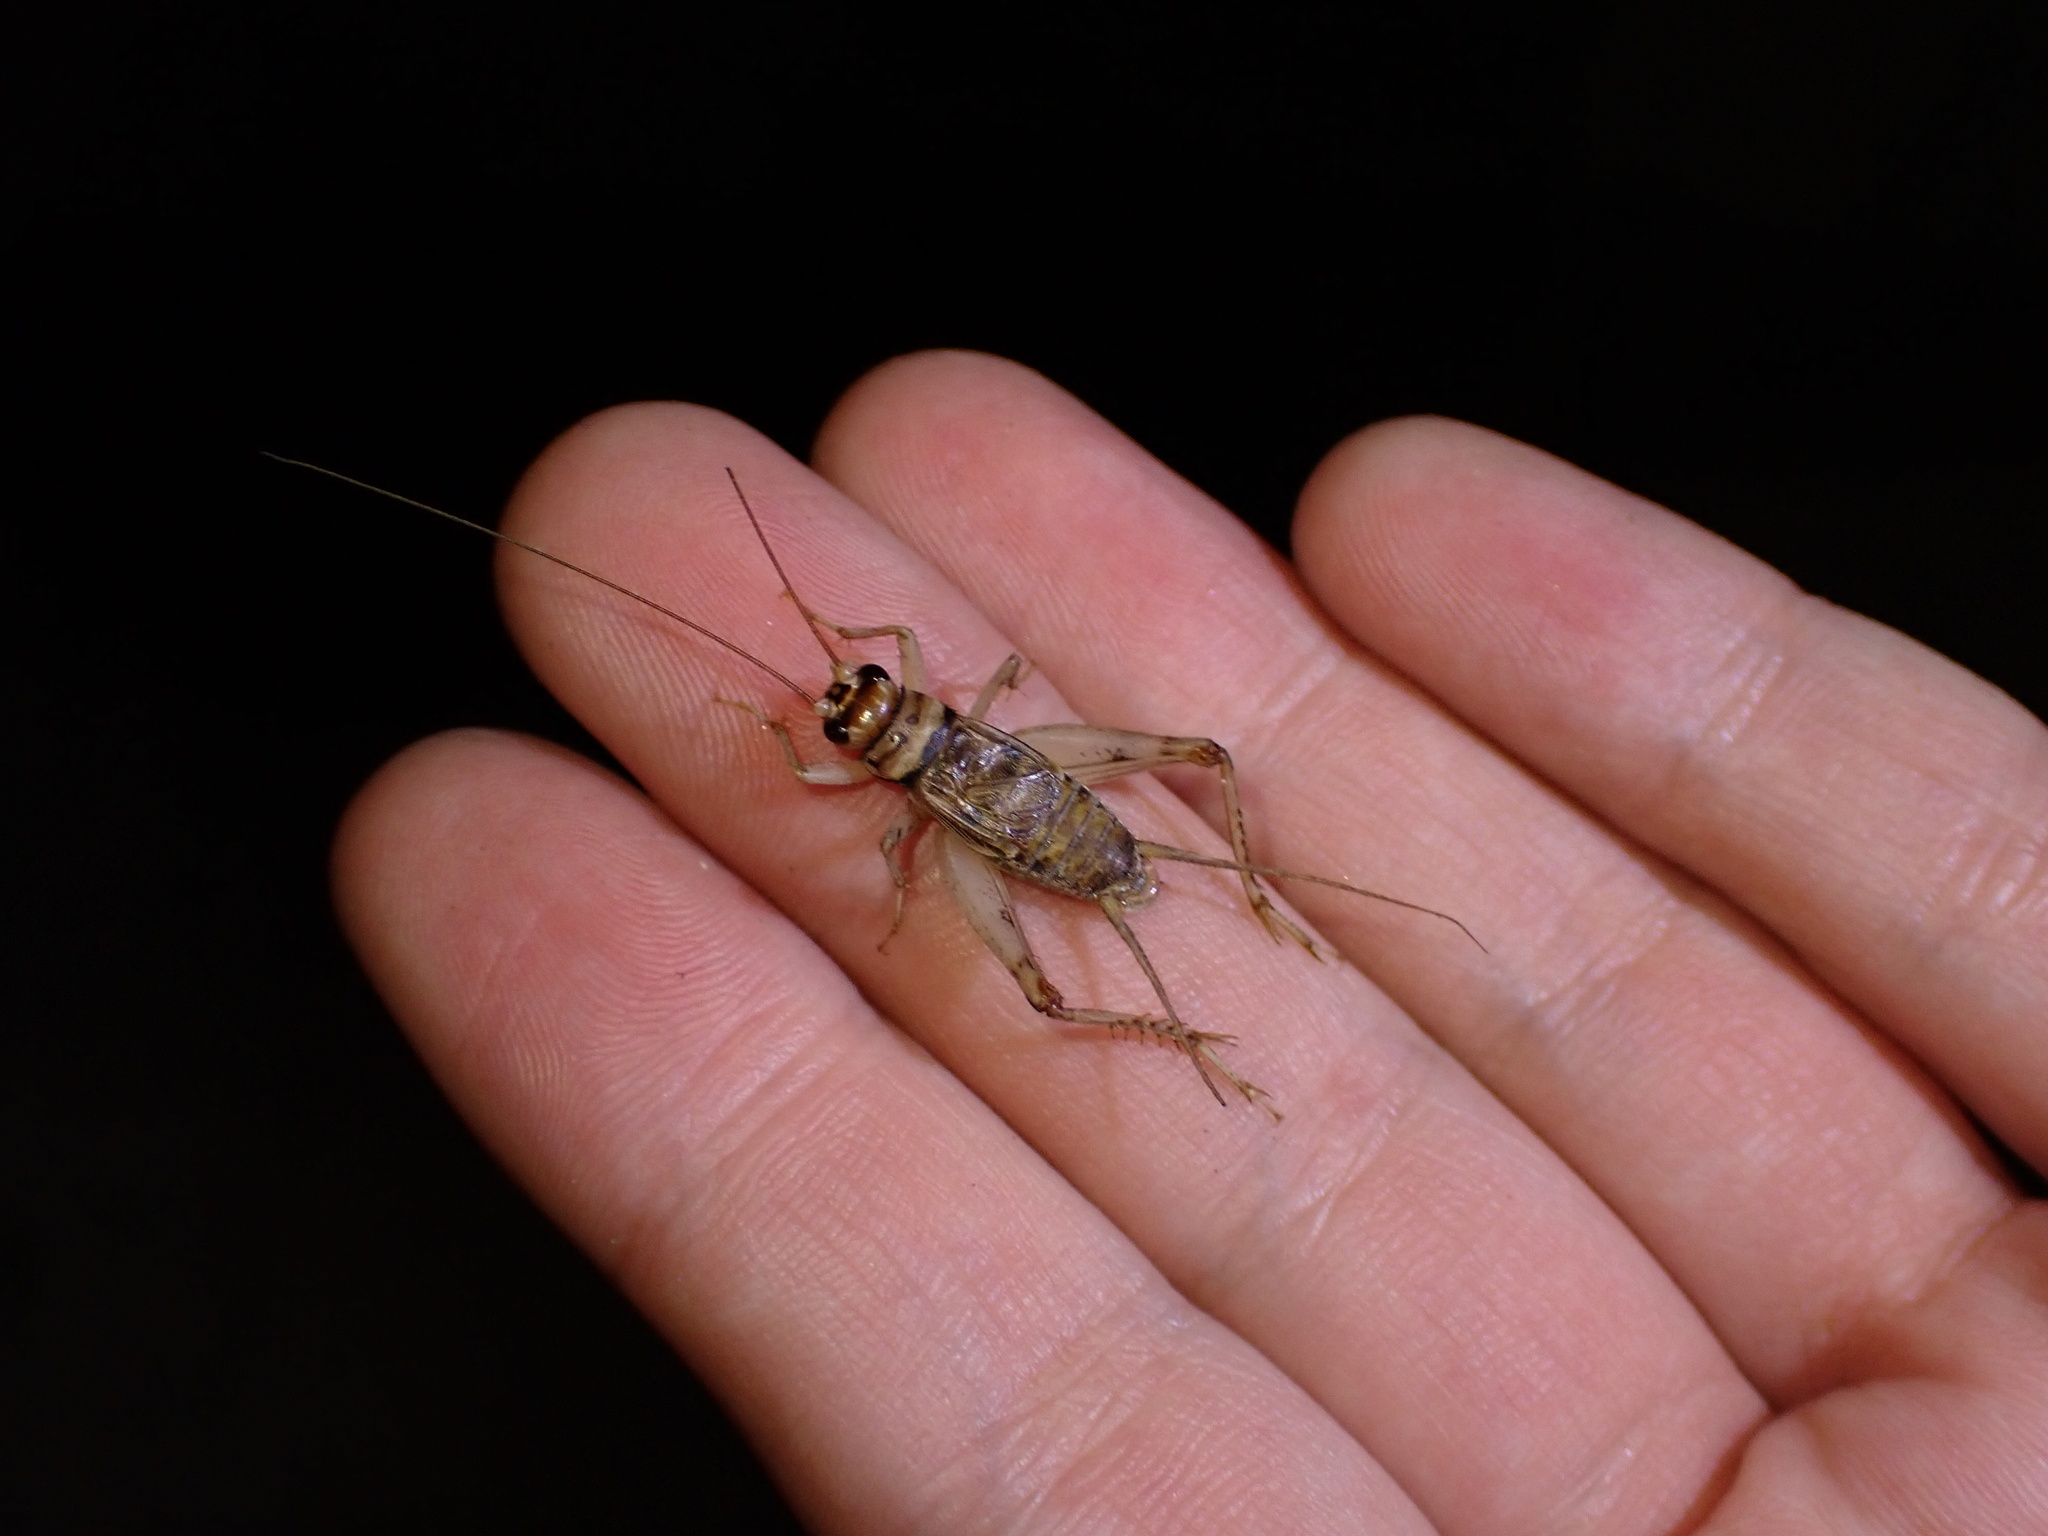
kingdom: Animalia
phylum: Arthropoda
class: Insecta
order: Orthoptera
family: Gryllidae
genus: Gryllodes
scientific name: Gryllodes sigillatus
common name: Tropical house cricket
